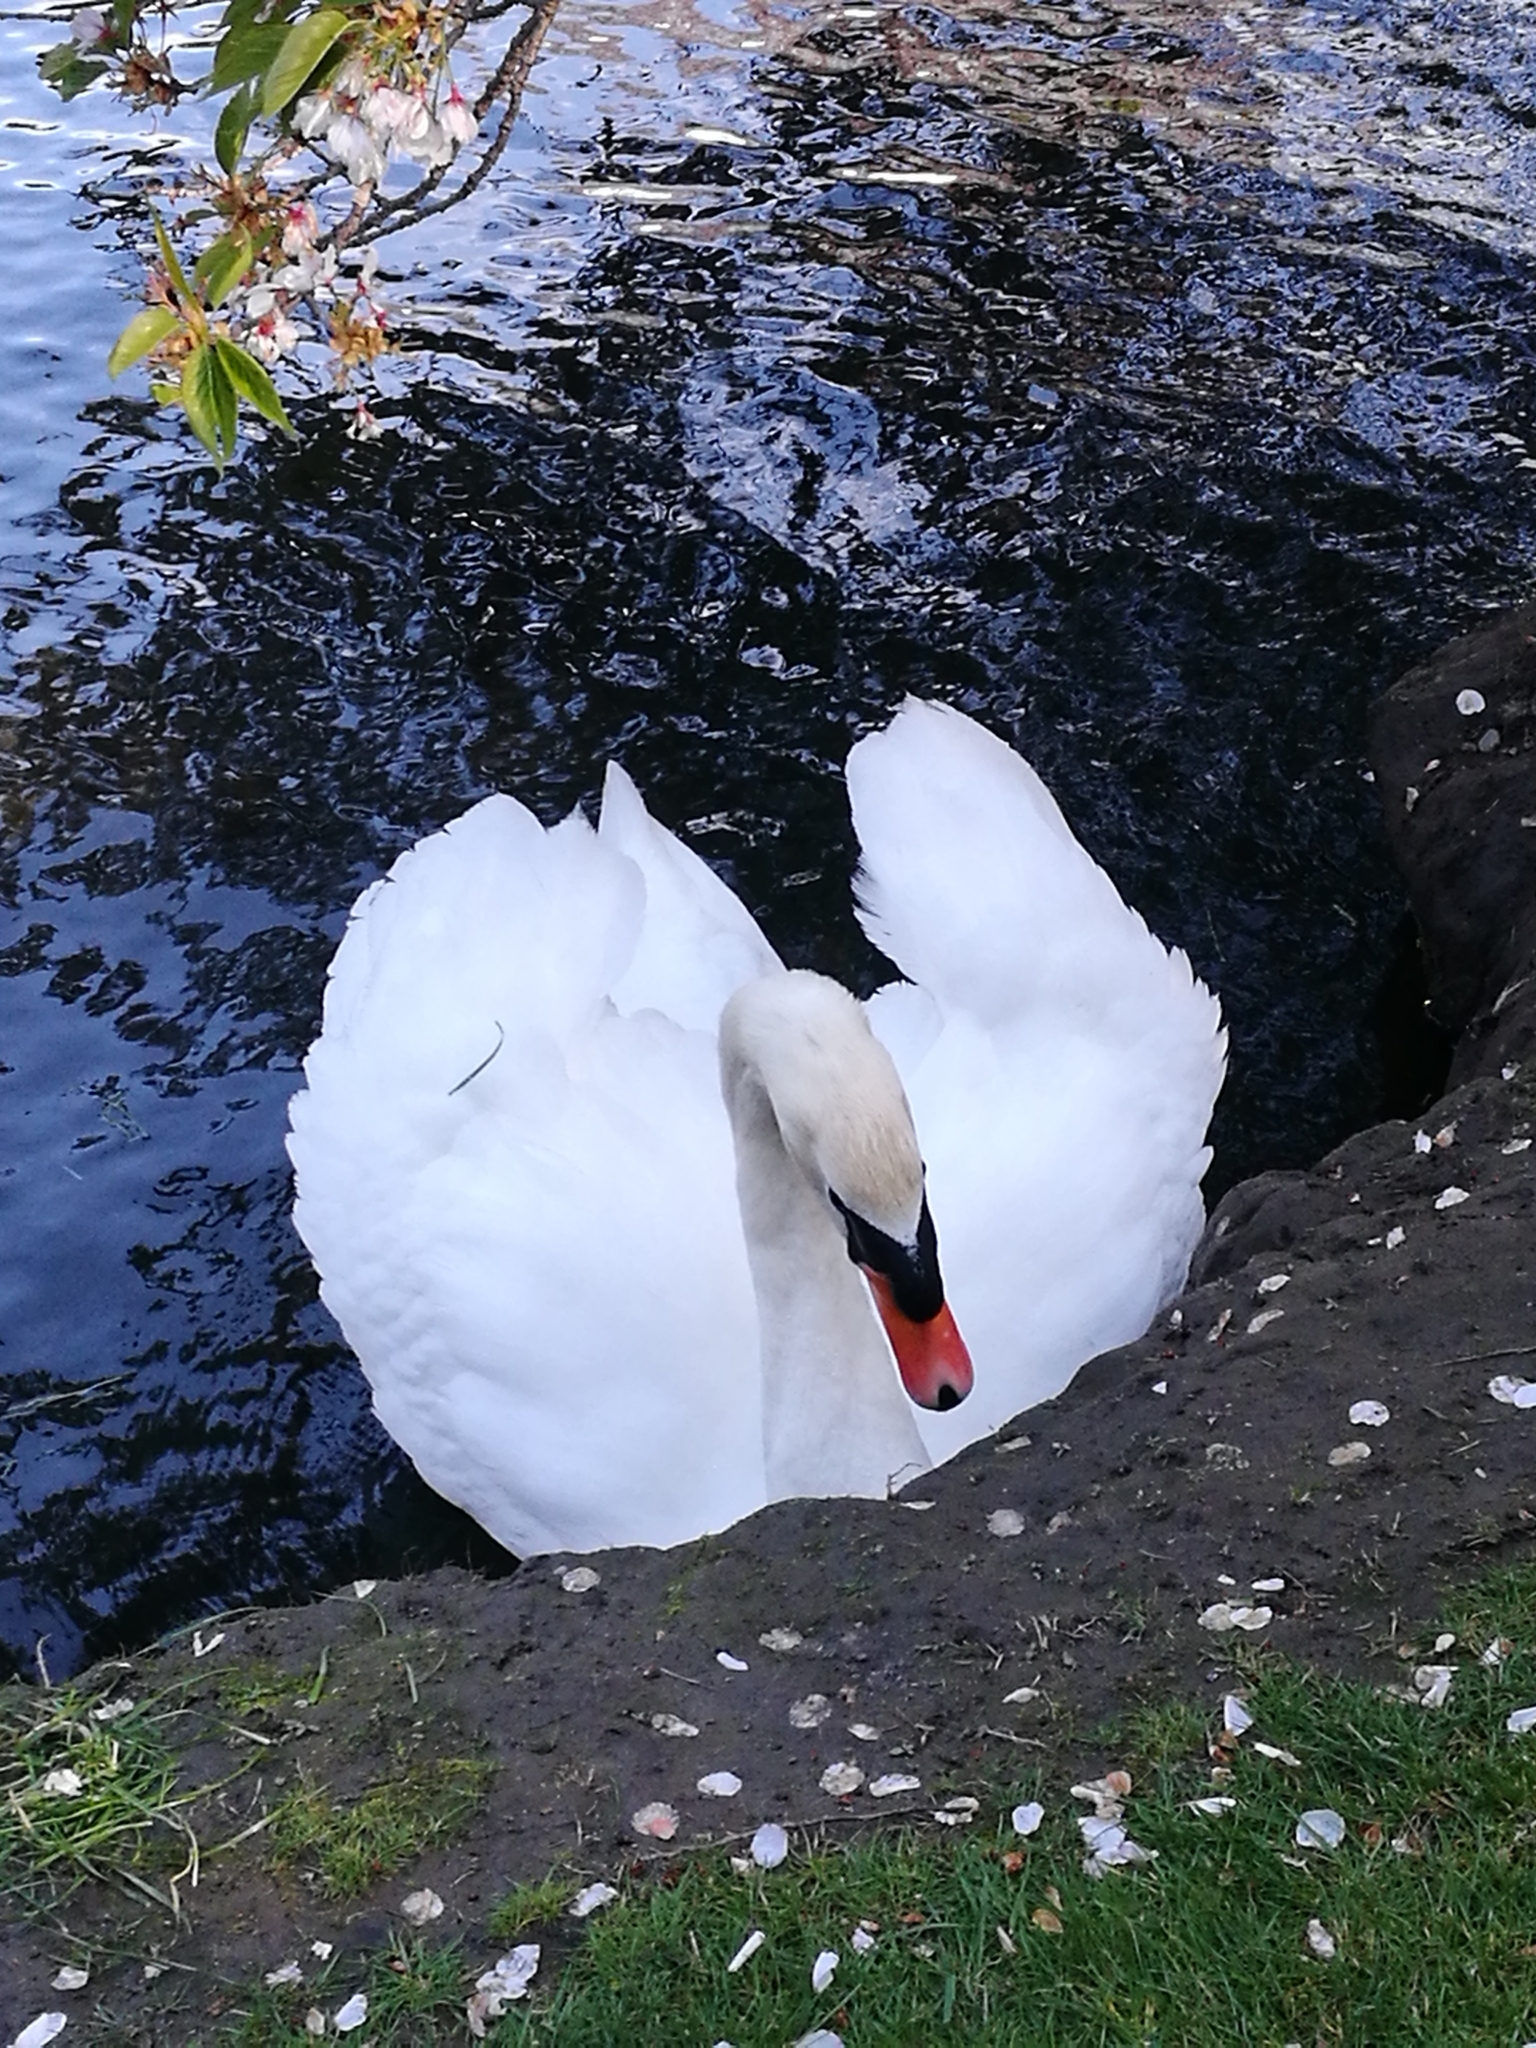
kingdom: Animalia
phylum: Chordata
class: Aves
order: Anseriformes
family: Anatidae
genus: Cygnus
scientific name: Cygnus olor
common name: Mute swan
